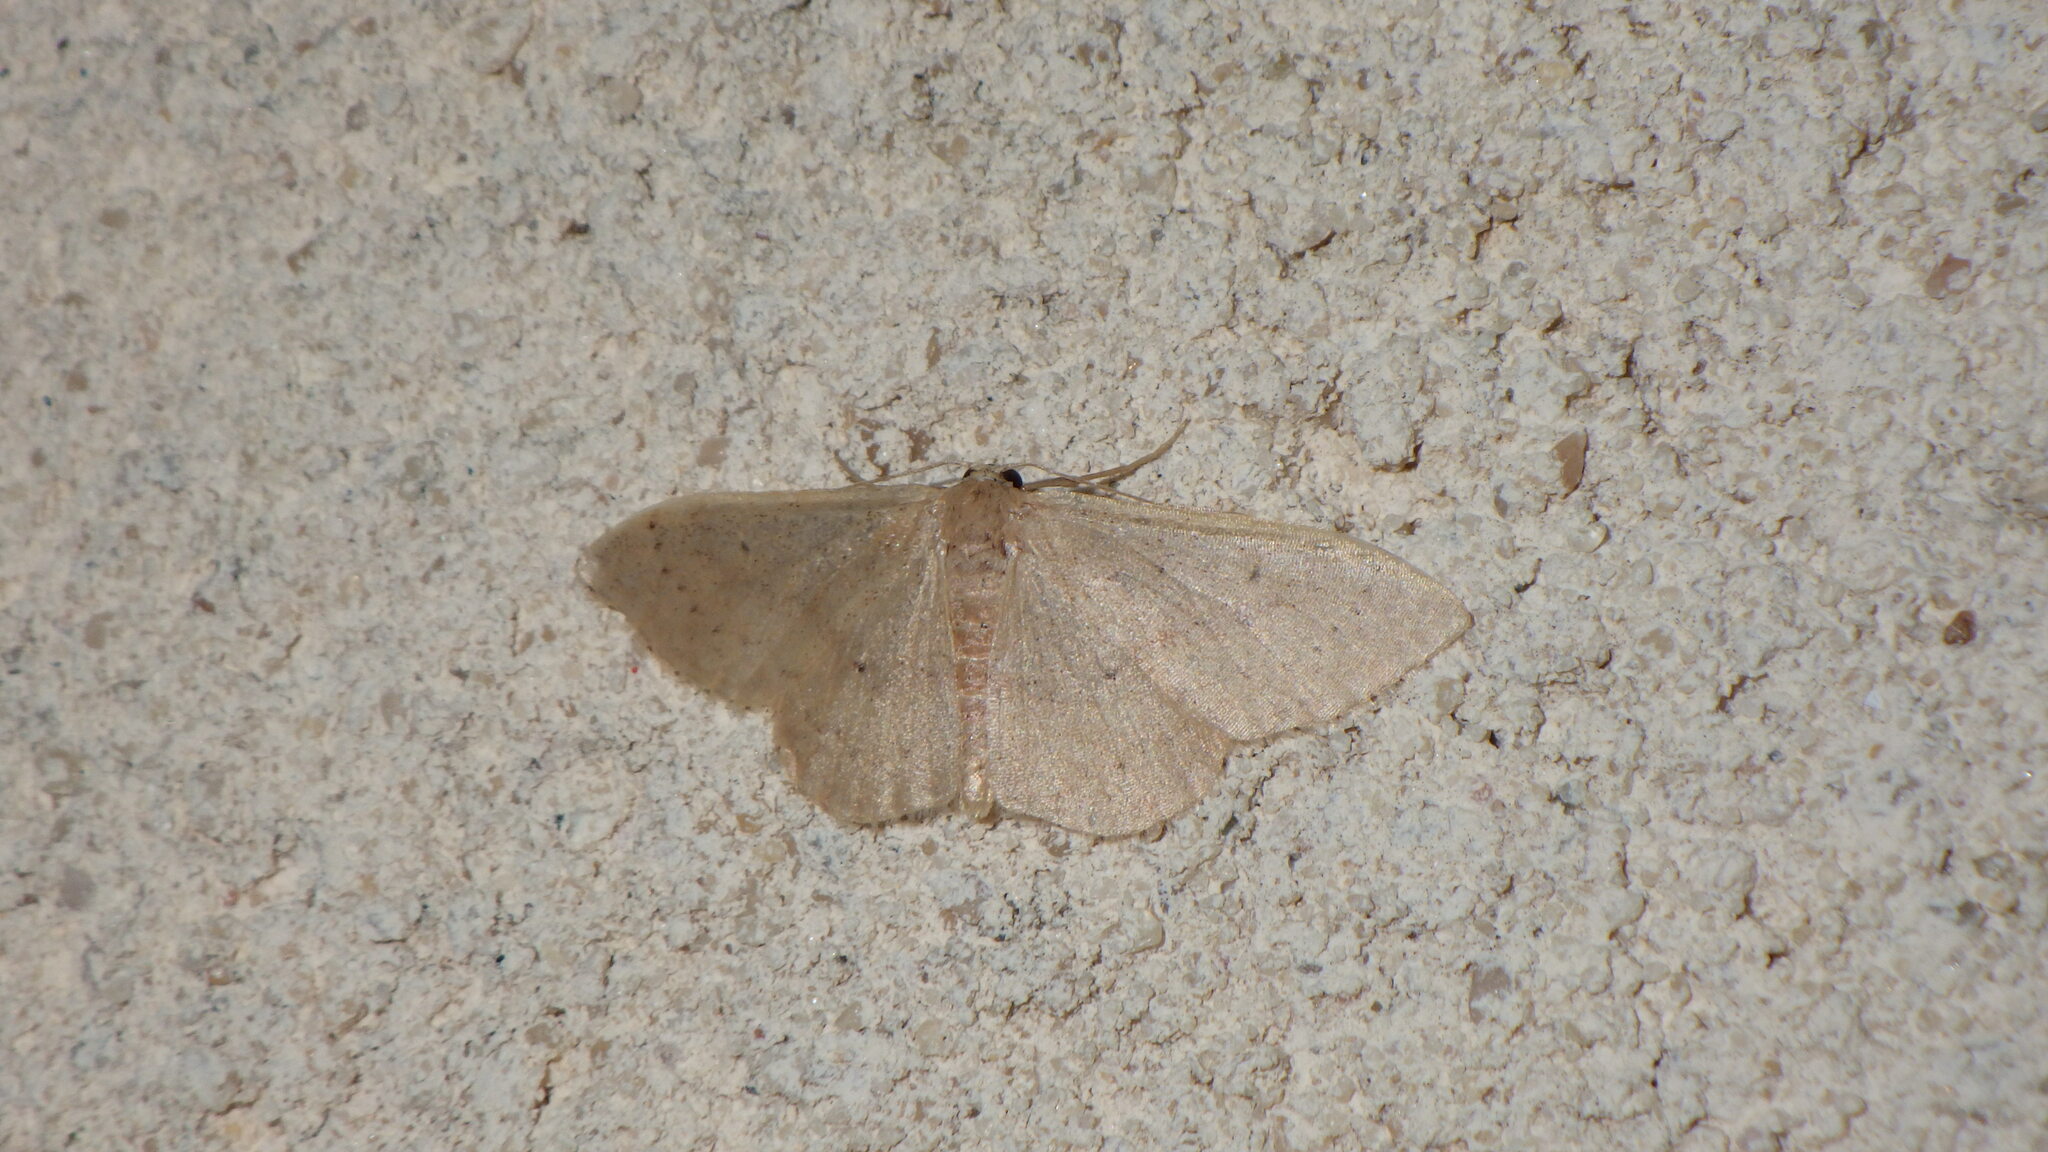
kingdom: Animalia
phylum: Arthropoda
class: Insecta
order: Lepidoptera
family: Geometridae
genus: Idaea
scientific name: Idaea eugeniata
